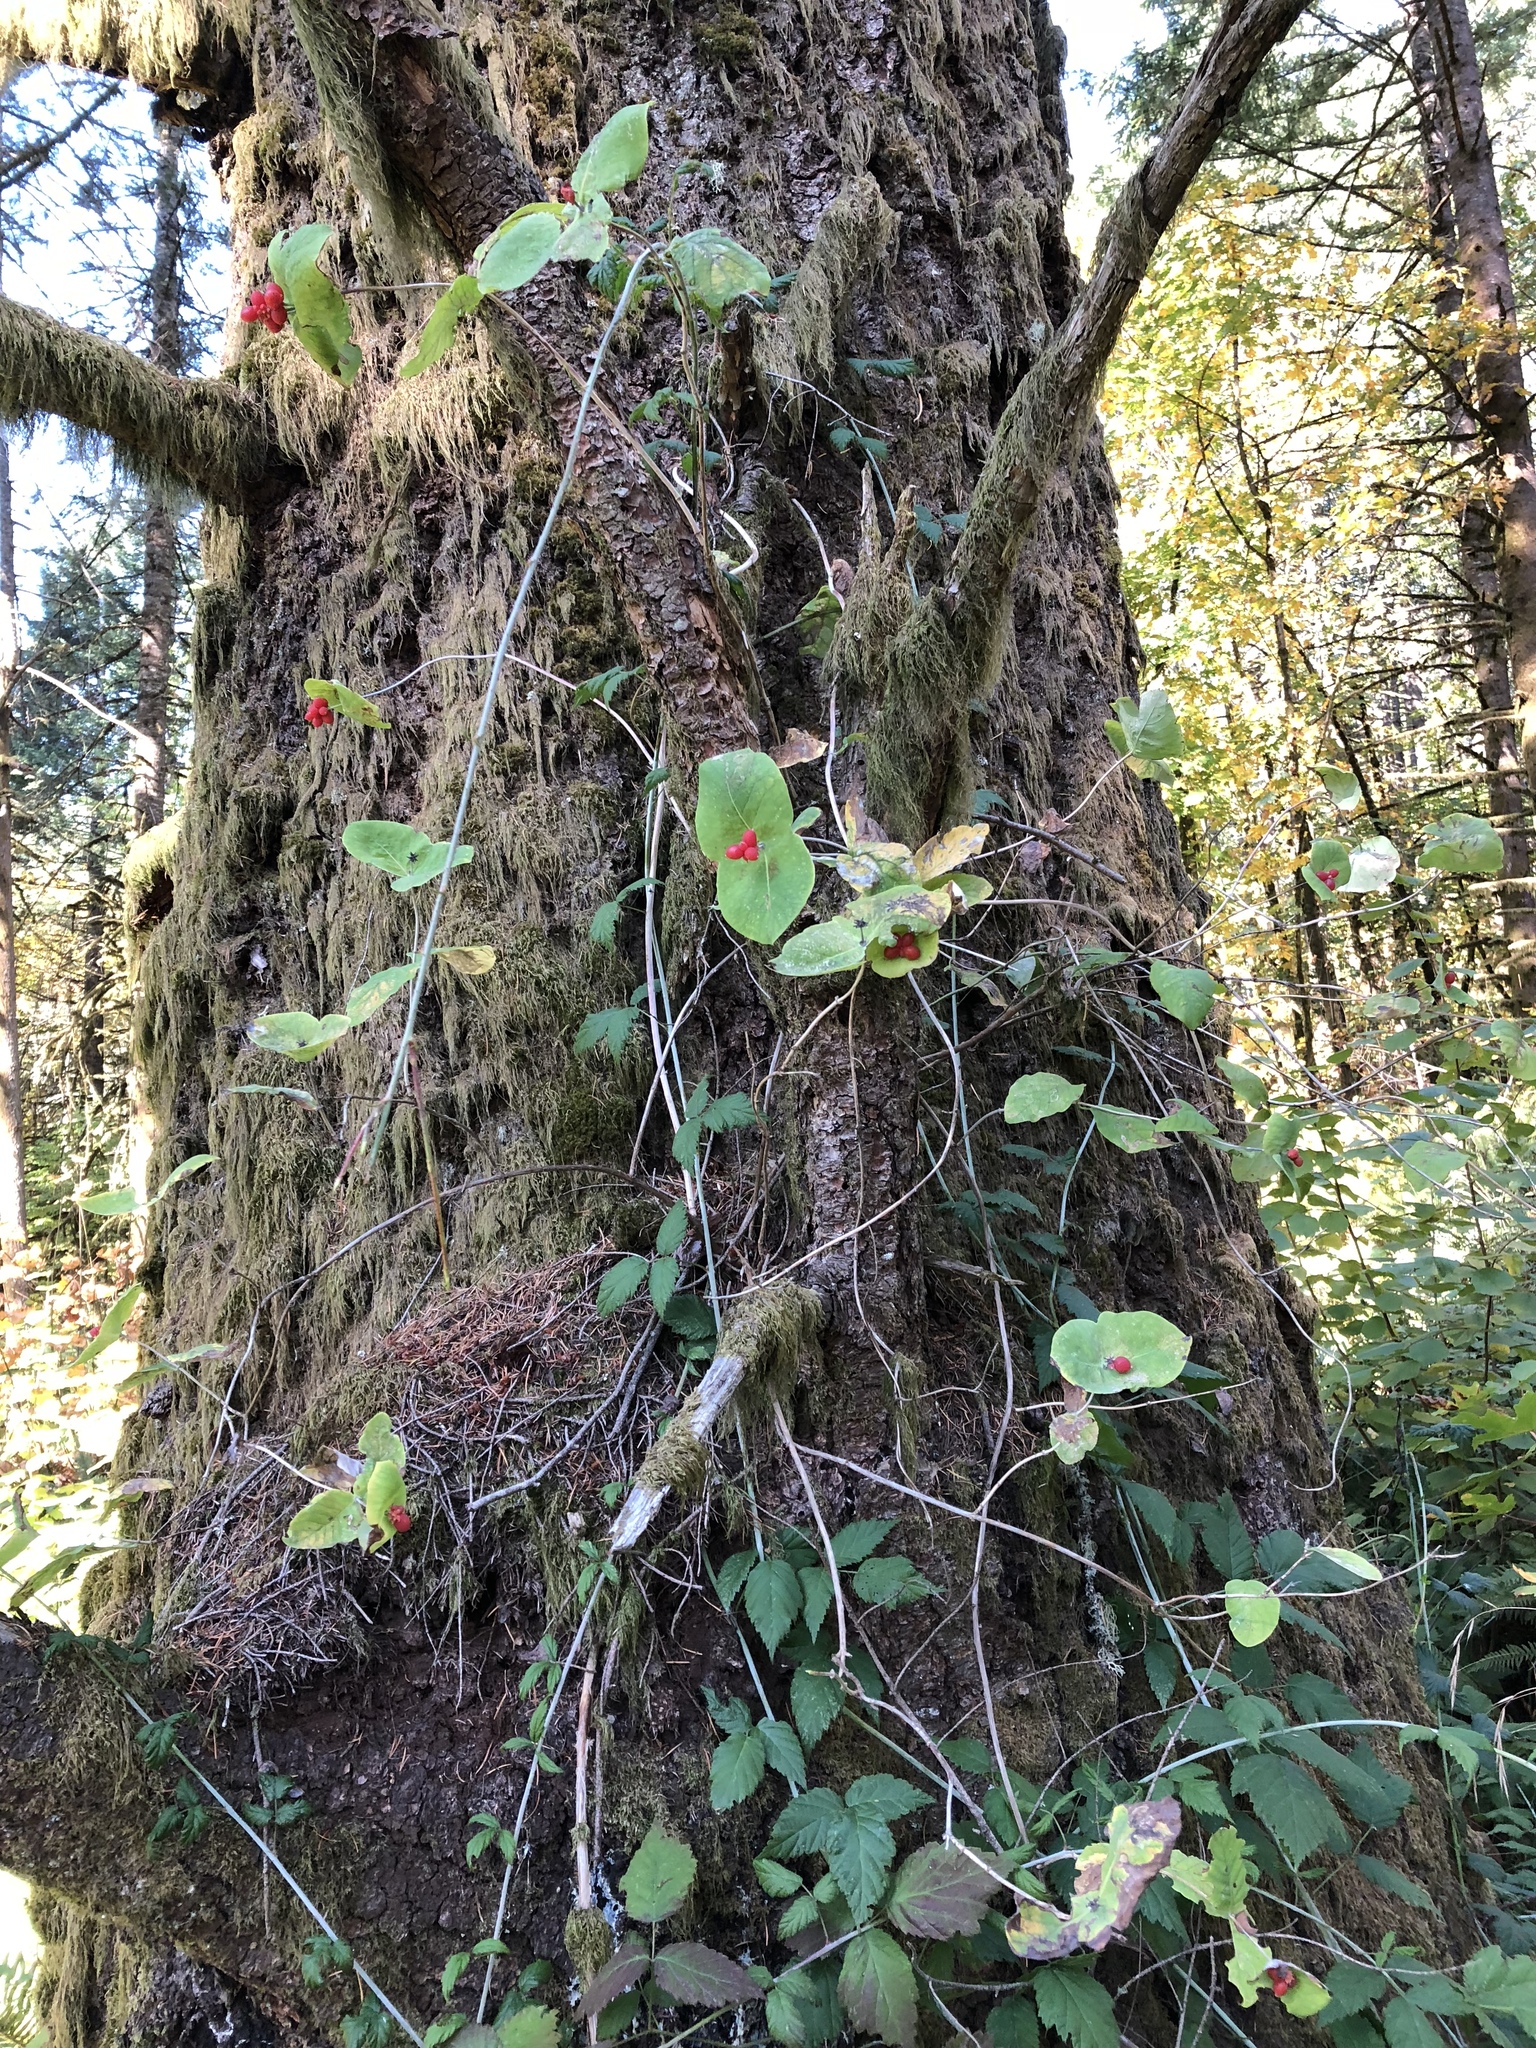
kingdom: Plantae
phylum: Tracheophyta
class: Magnoliopsida
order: Dipsacales
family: Caprifoliaceae
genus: Lonicera
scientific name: Lonicera ciliosa
